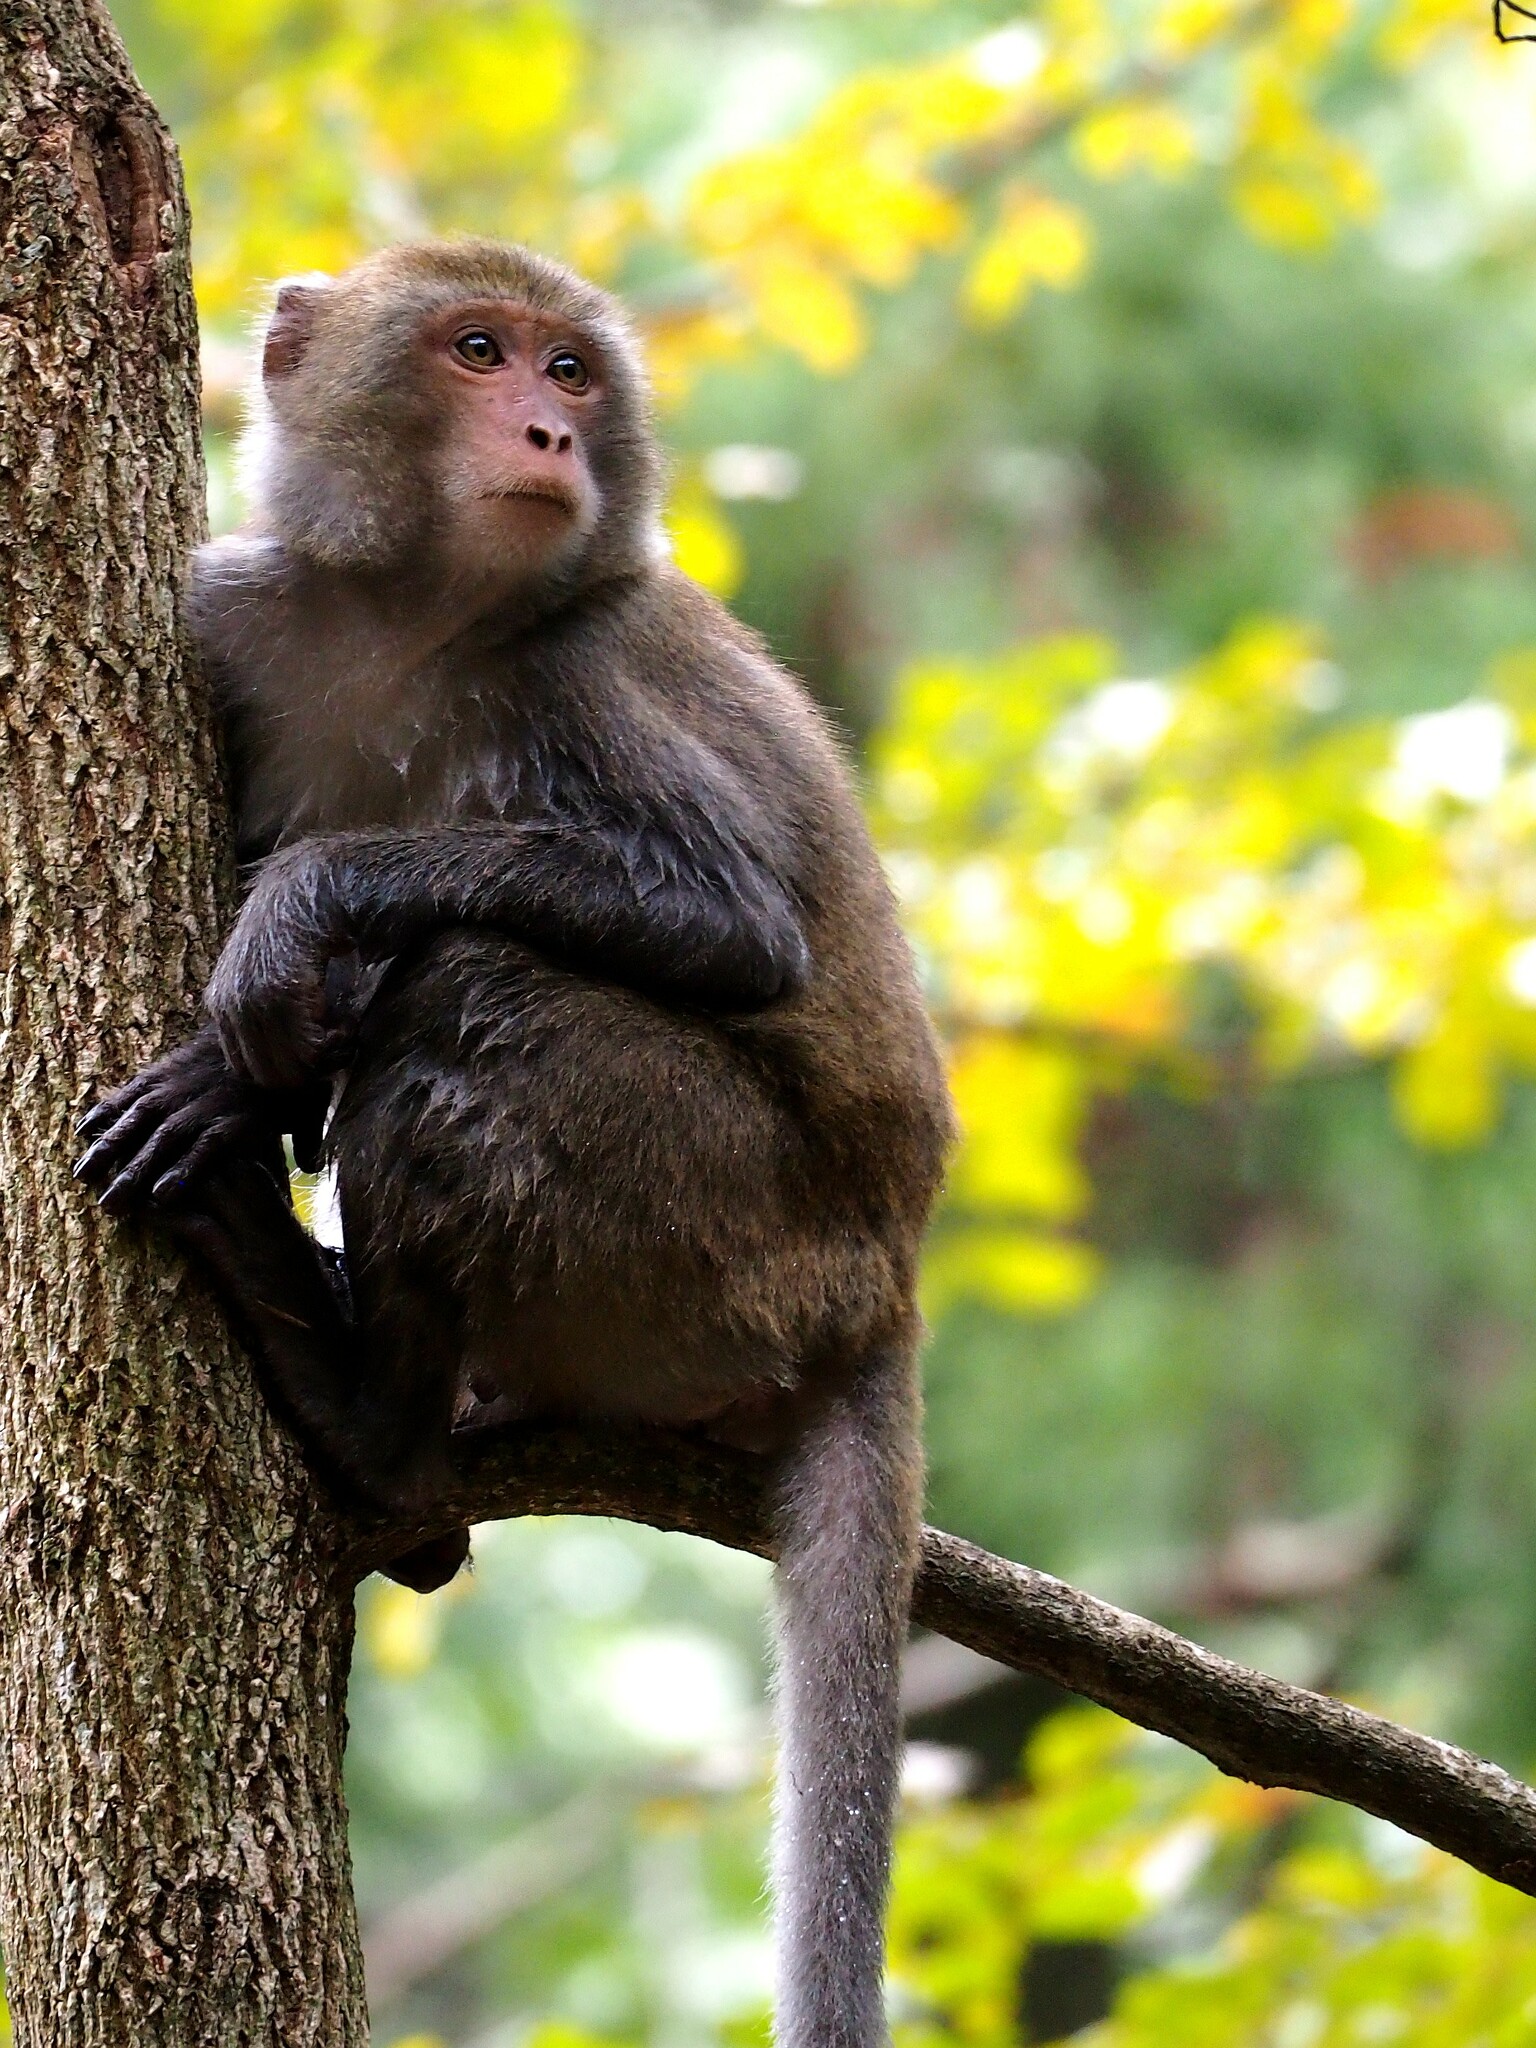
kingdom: Animalia
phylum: Chordata
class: Mammalia
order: Primates
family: Cercopithecidae
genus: Macaca
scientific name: Macaca cyclopis
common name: Formosan rock macaque
